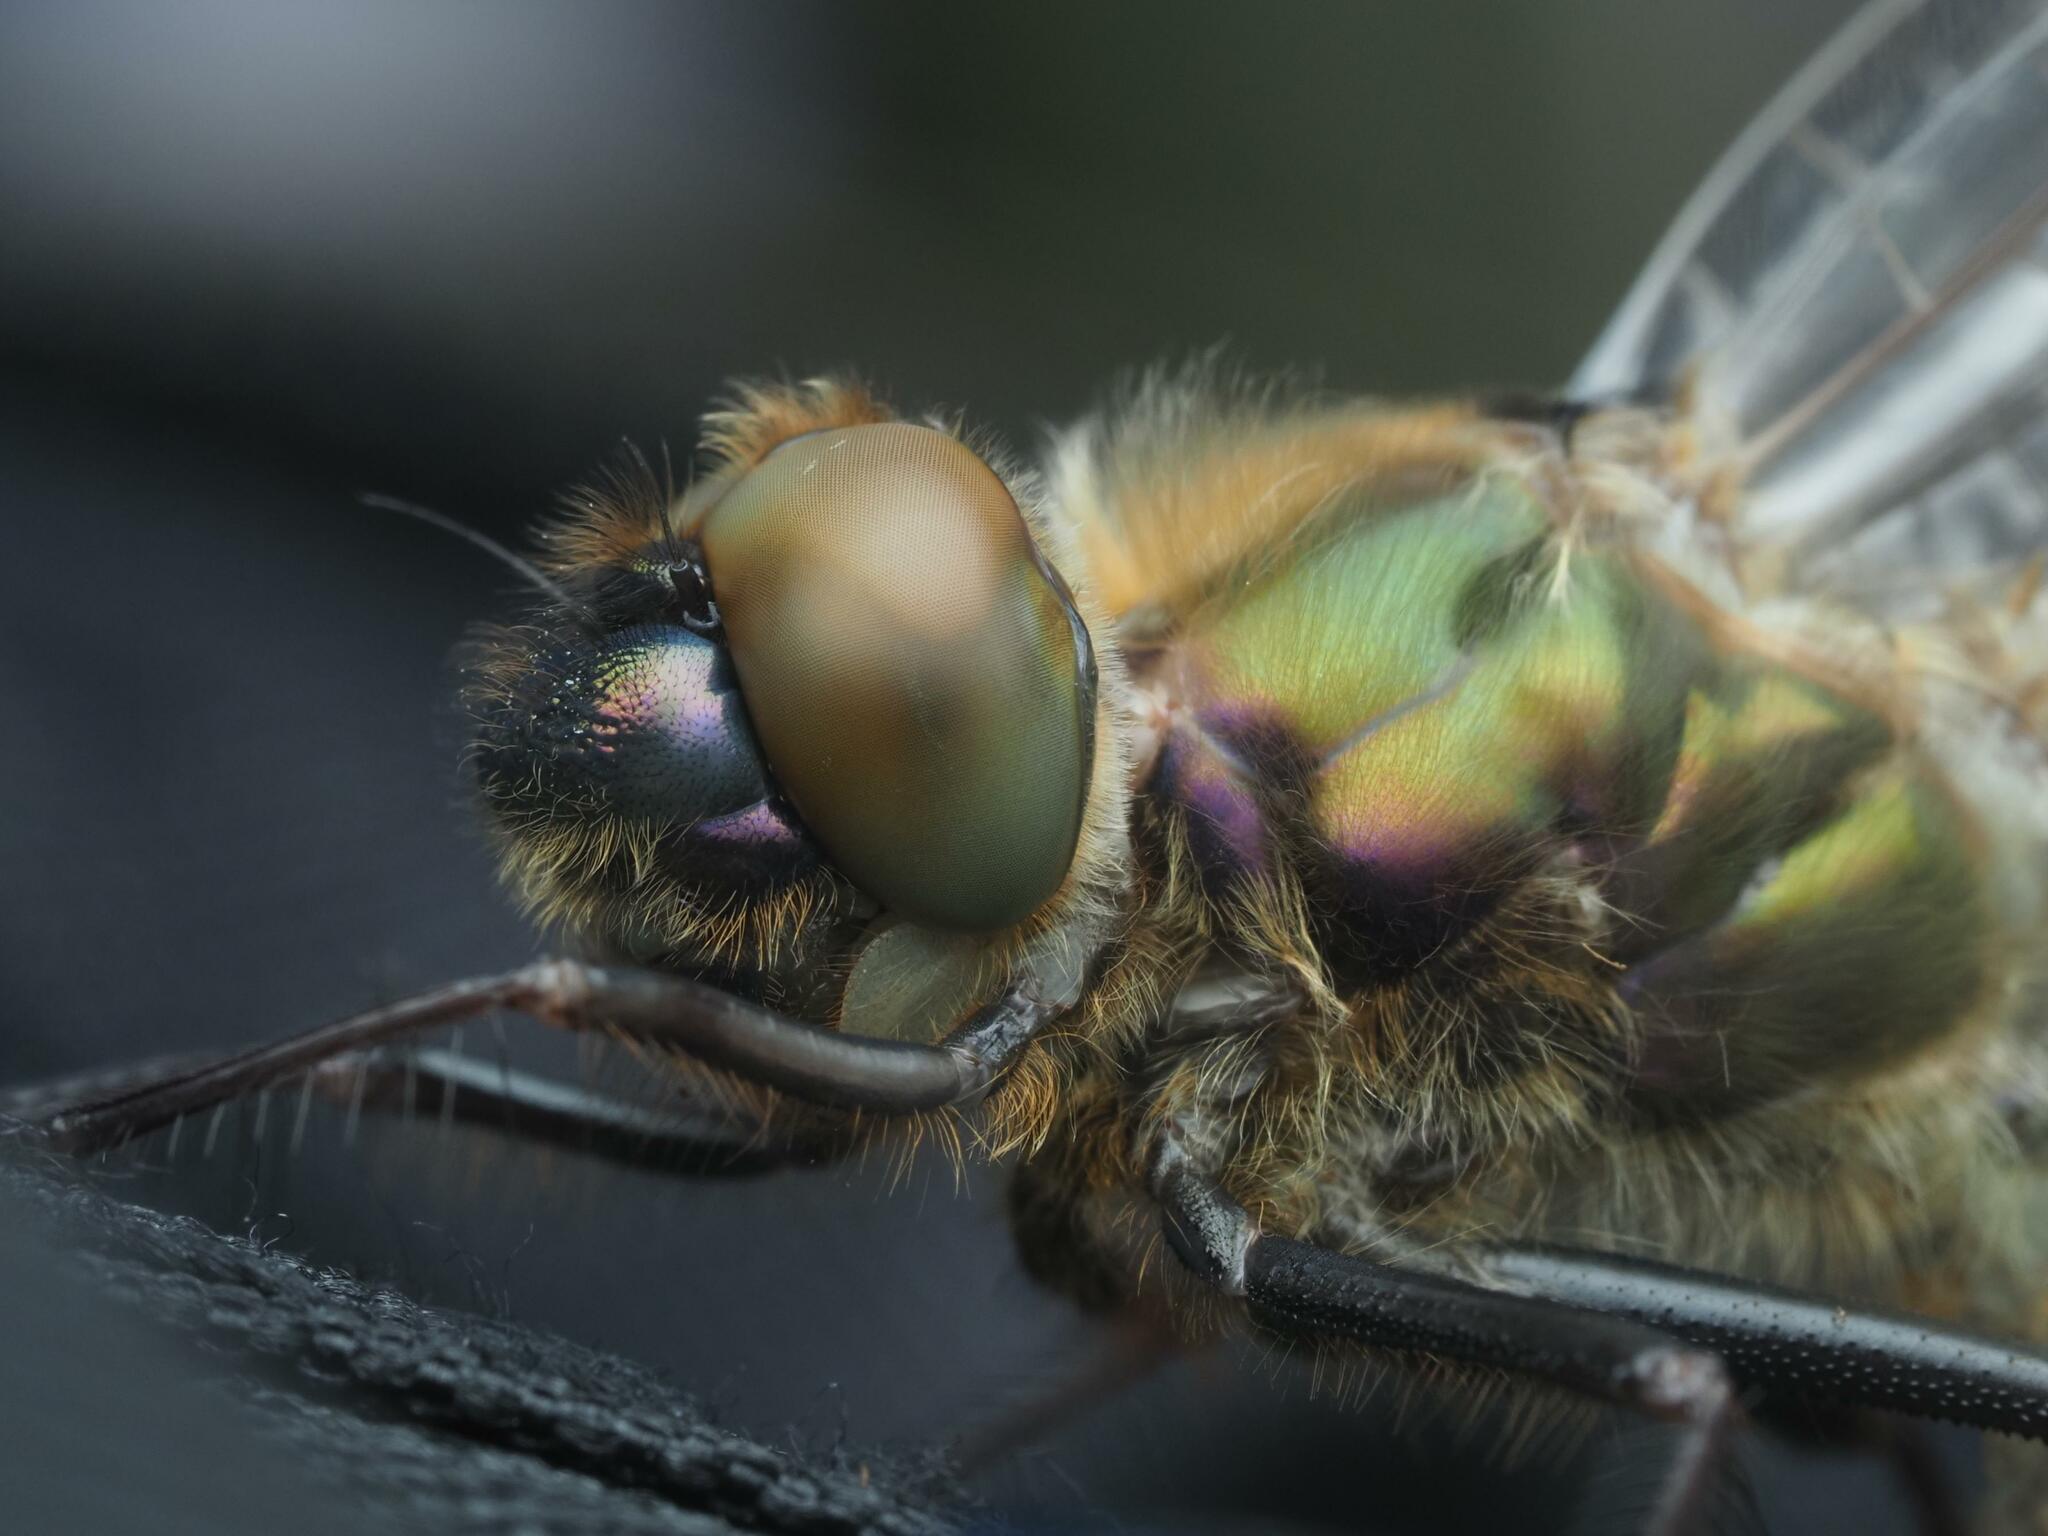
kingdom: Animalia
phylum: Arthropoda
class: Insecta
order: Odonata
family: Corduliidae
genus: Cordulia
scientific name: Cordulia aenea
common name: Downy emerald
